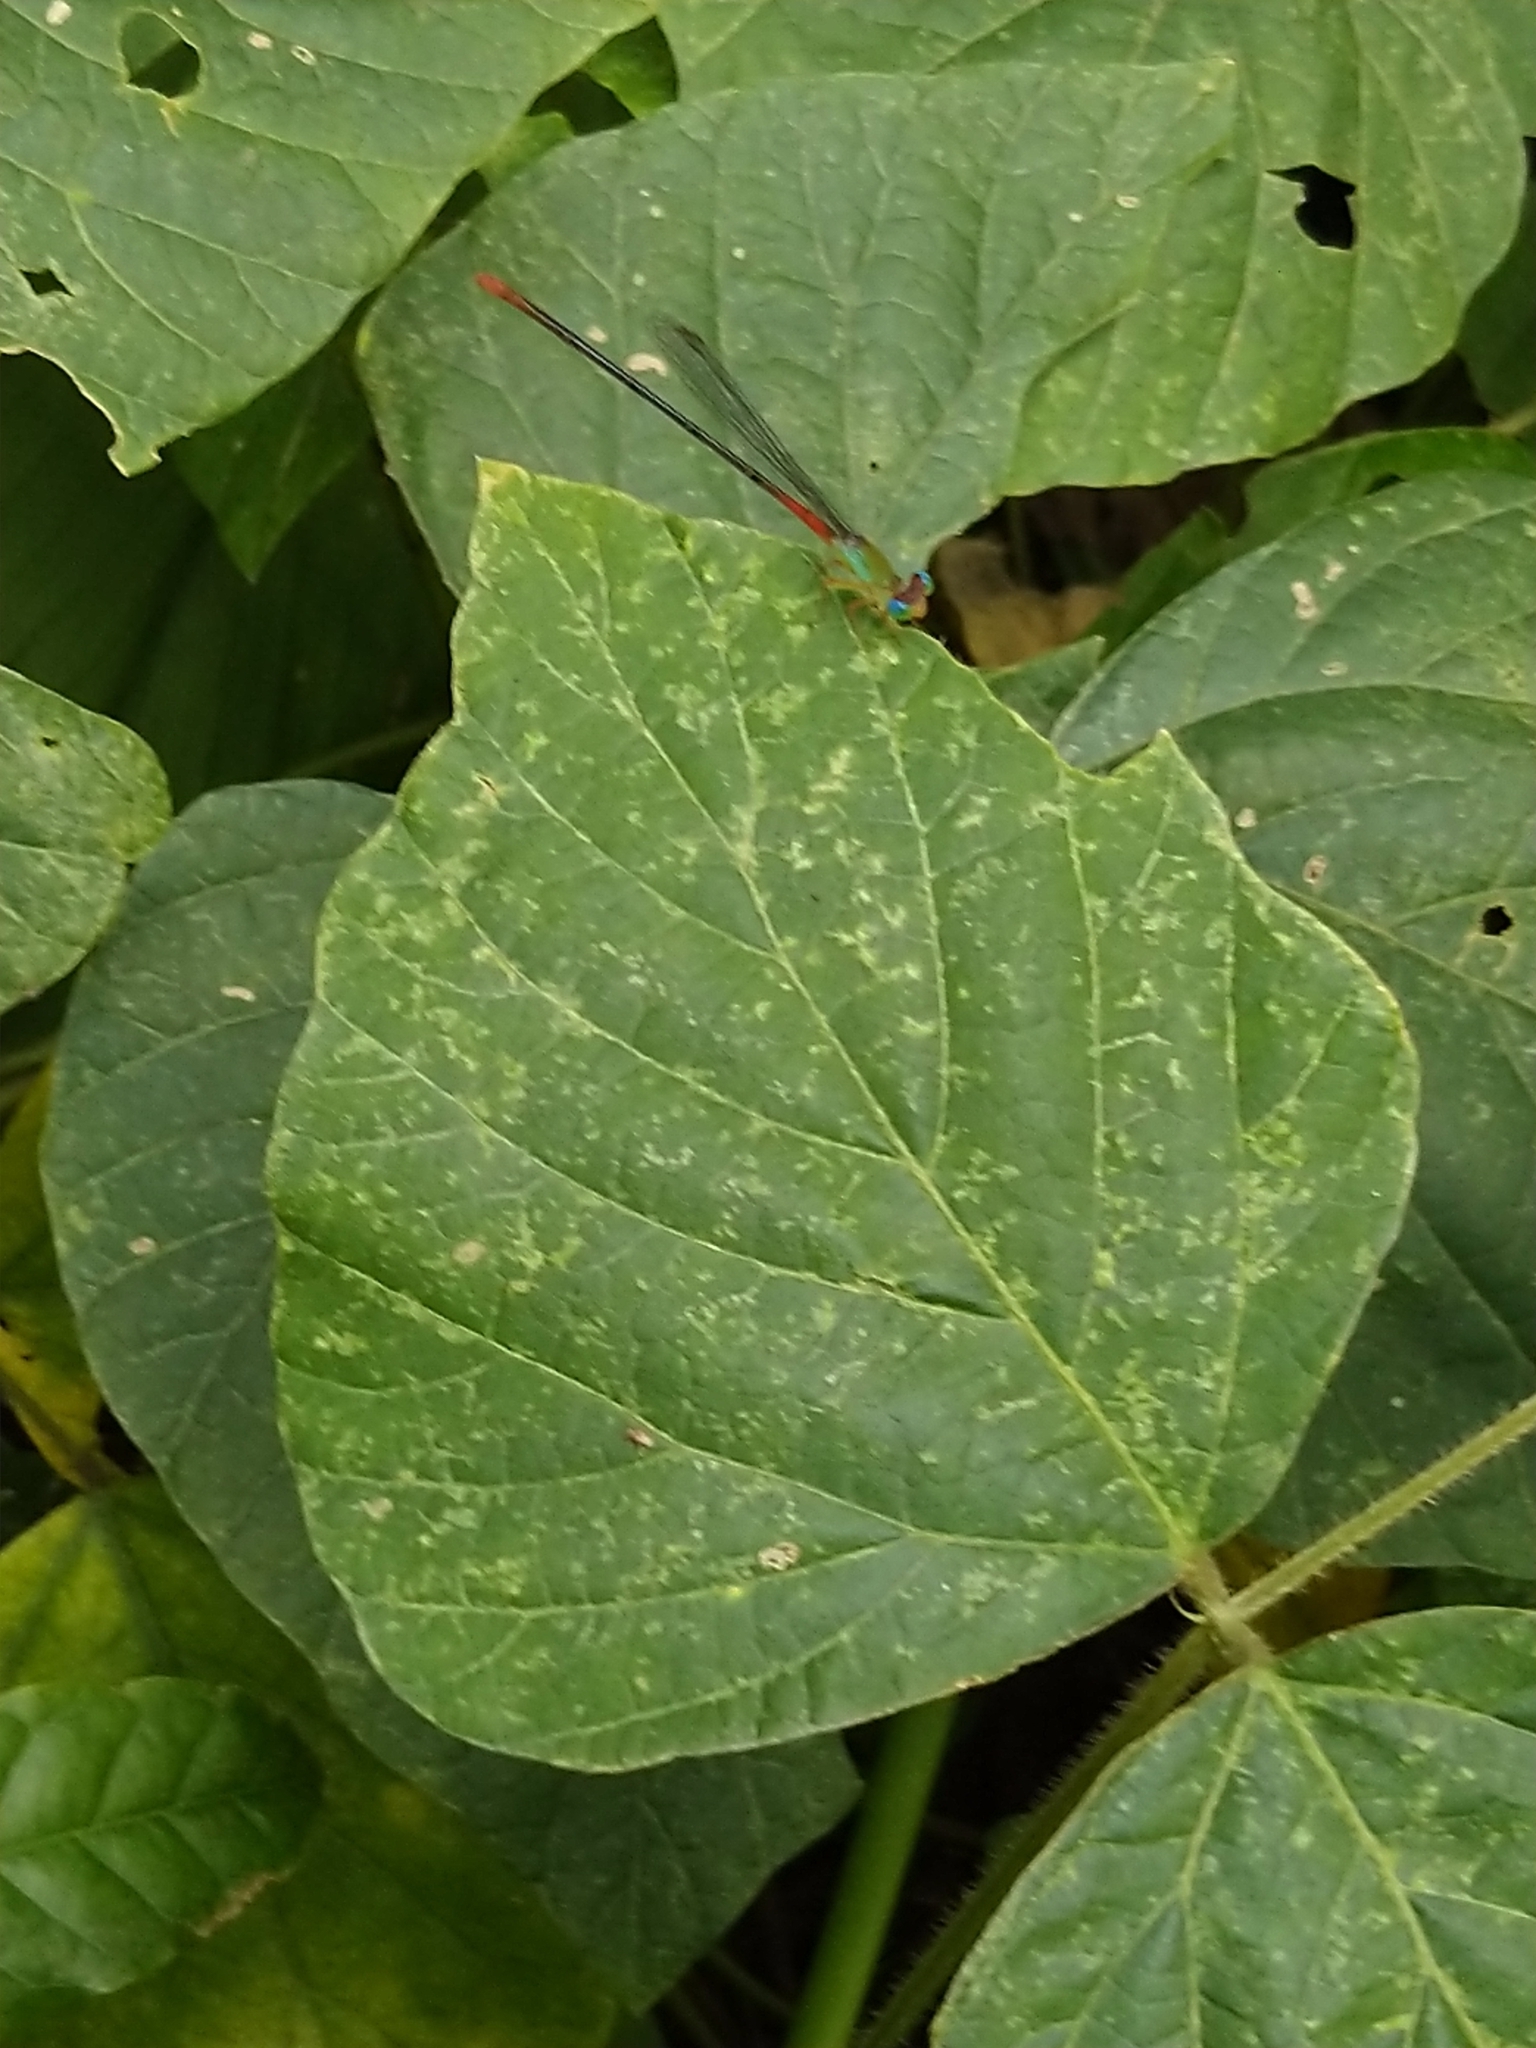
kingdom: Animalia
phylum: Arthropoda
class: Insecta
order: Odonata
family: Coenagrionidae
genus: Ceriagrion
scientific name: Ceriagrion cerinorubellum
